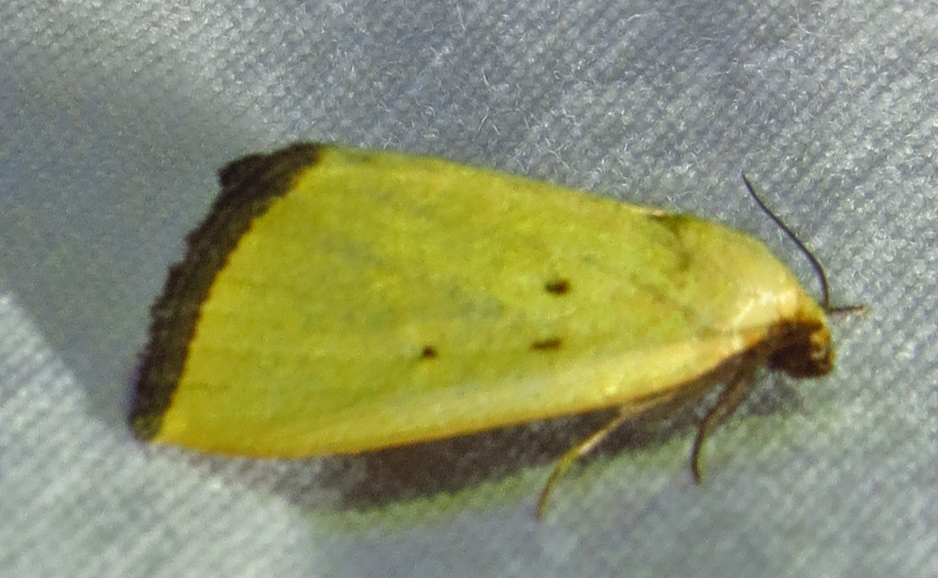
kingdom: Animalia
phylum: Arthropoda
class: Insecta
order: Lepidoptera
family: Noctuidae
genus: Marimatha
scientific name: Marimatha nigrofimbria
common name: Black-bordered lemon moth
